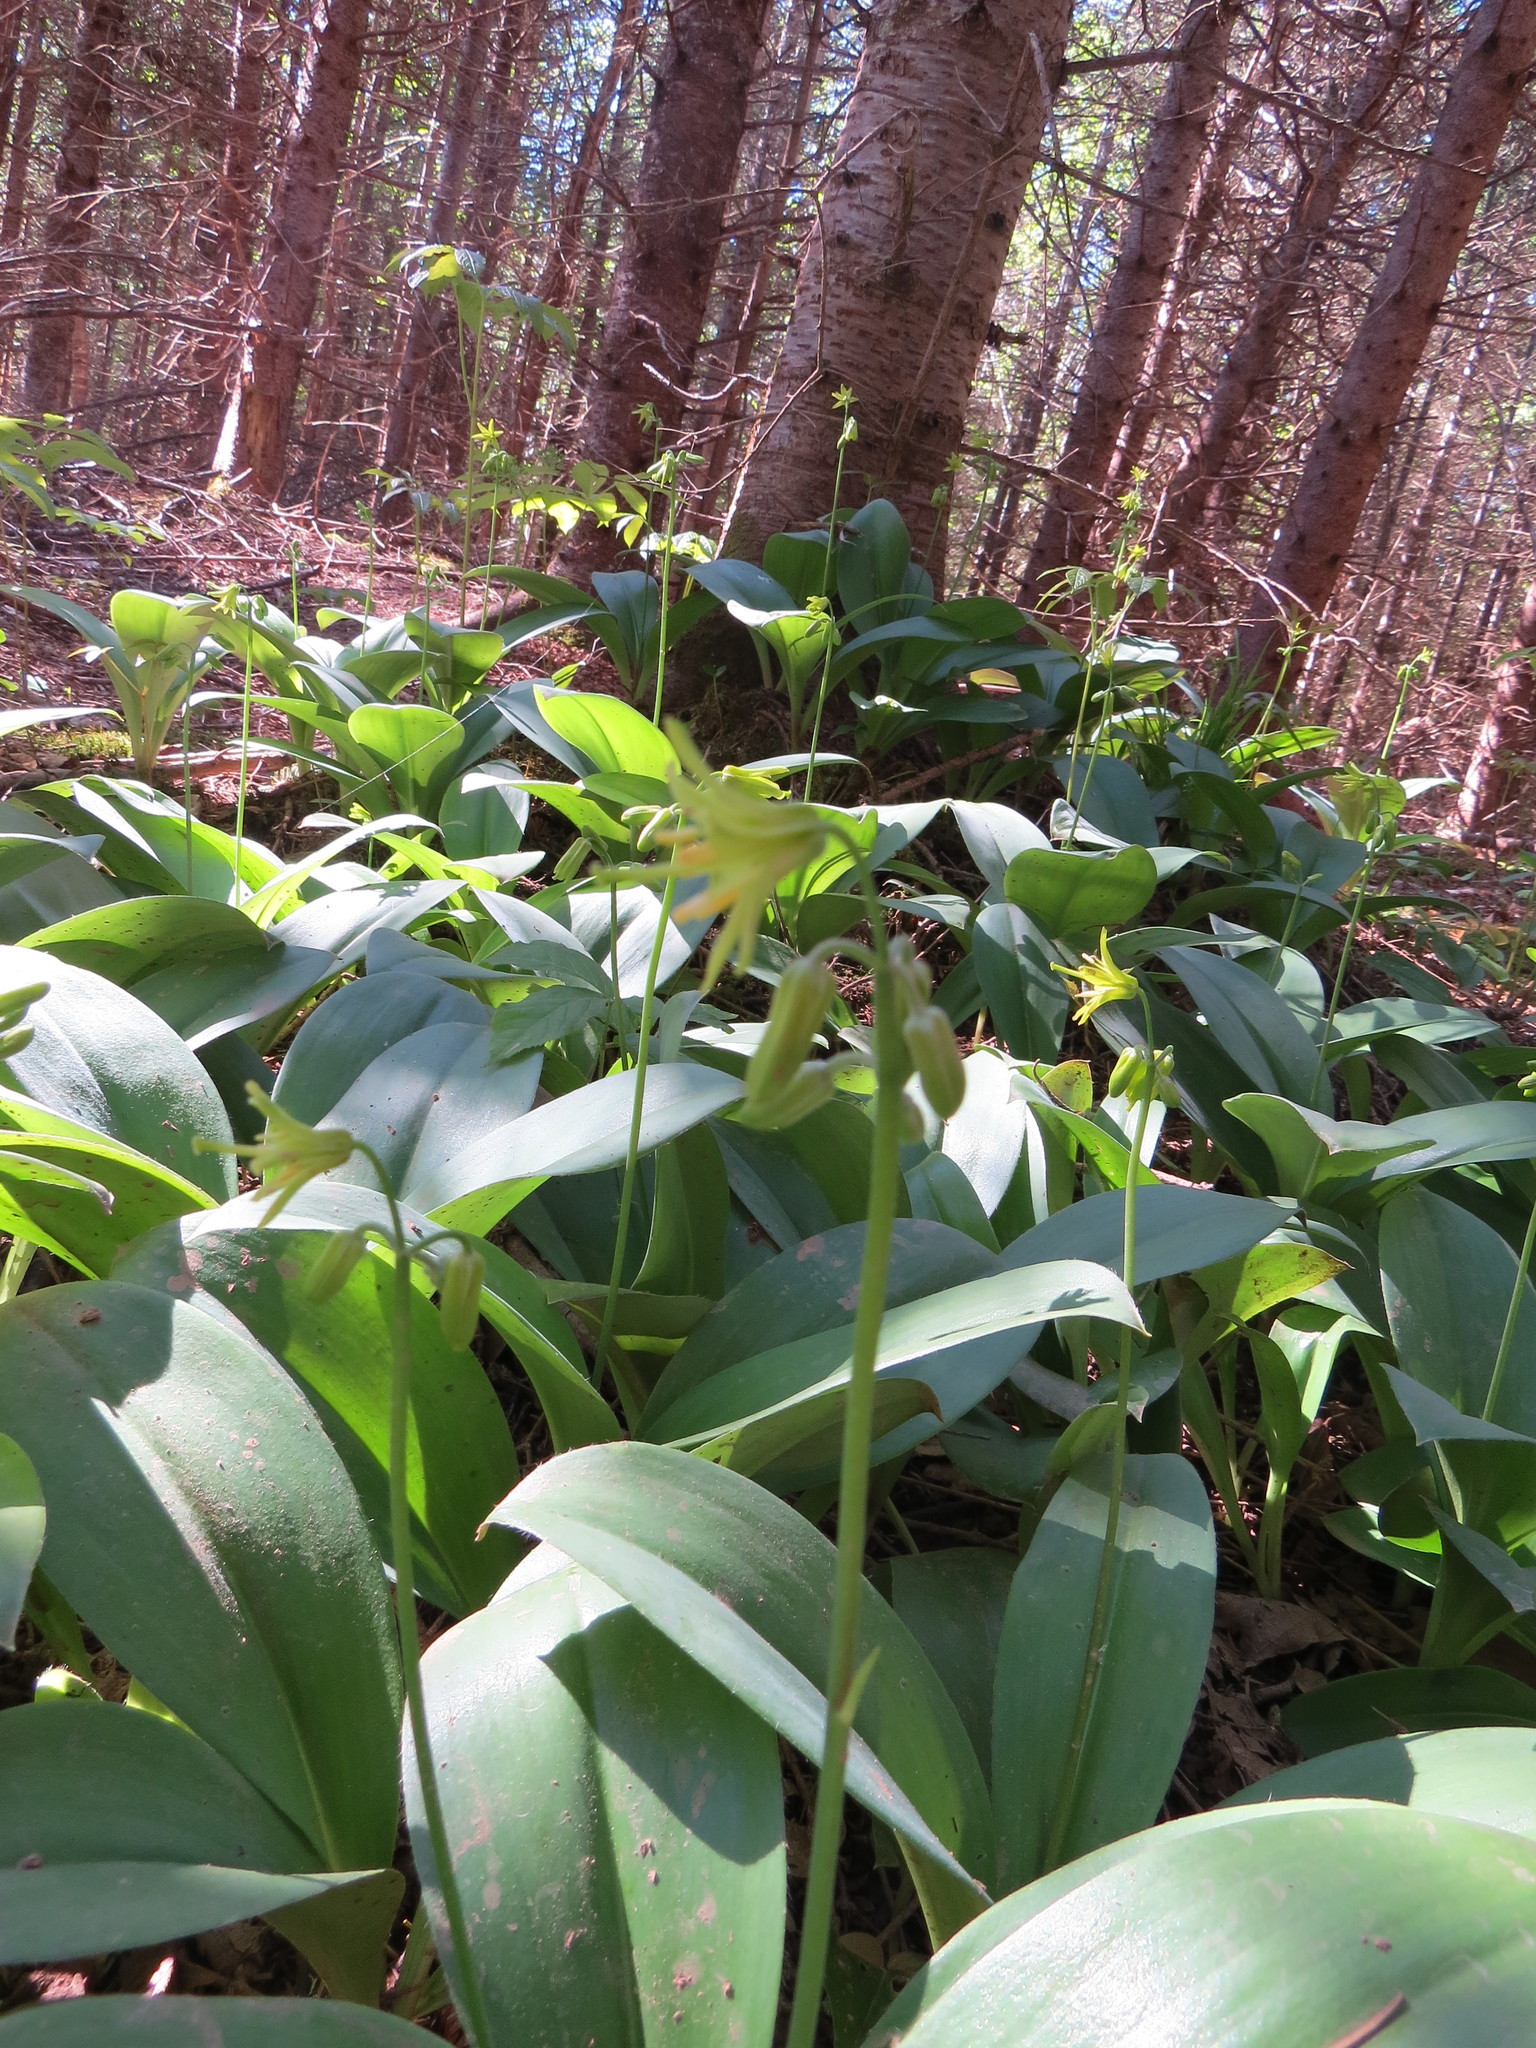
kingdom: Plantae
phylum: Tracheophyta
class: Liliopsida
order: Liliales
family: Liliaceae
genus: Clintonia
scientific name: Clintonia borealis
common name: Yellow clintonia
